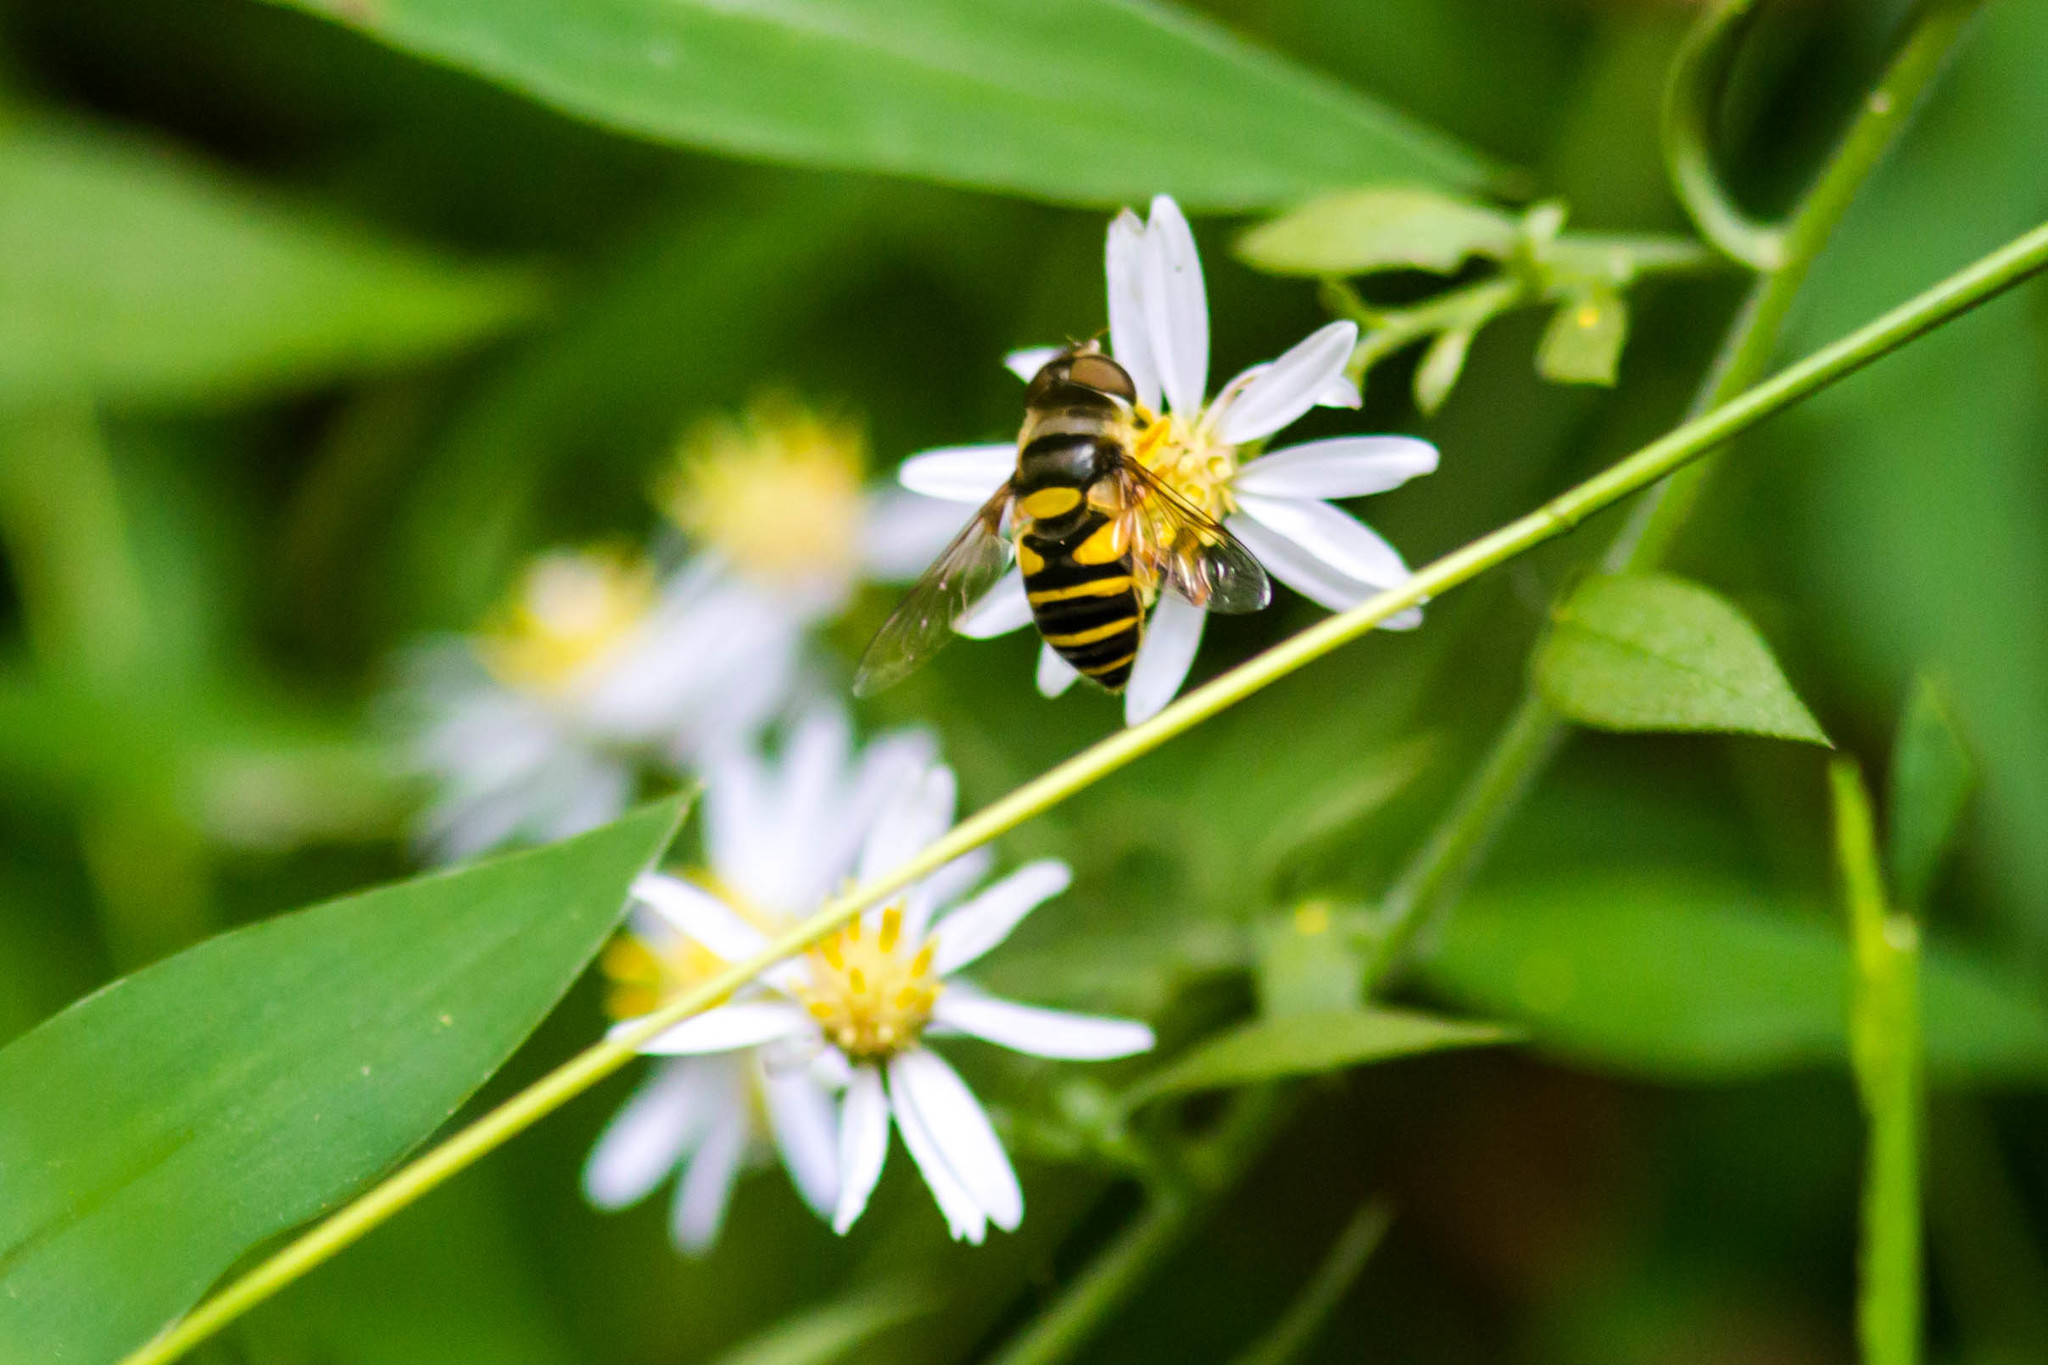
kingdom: Animalia
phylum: Arthropoda
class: Insecta
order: Diptera
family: Syrphidae
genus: Eristalis
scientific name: Eristalis transversa
